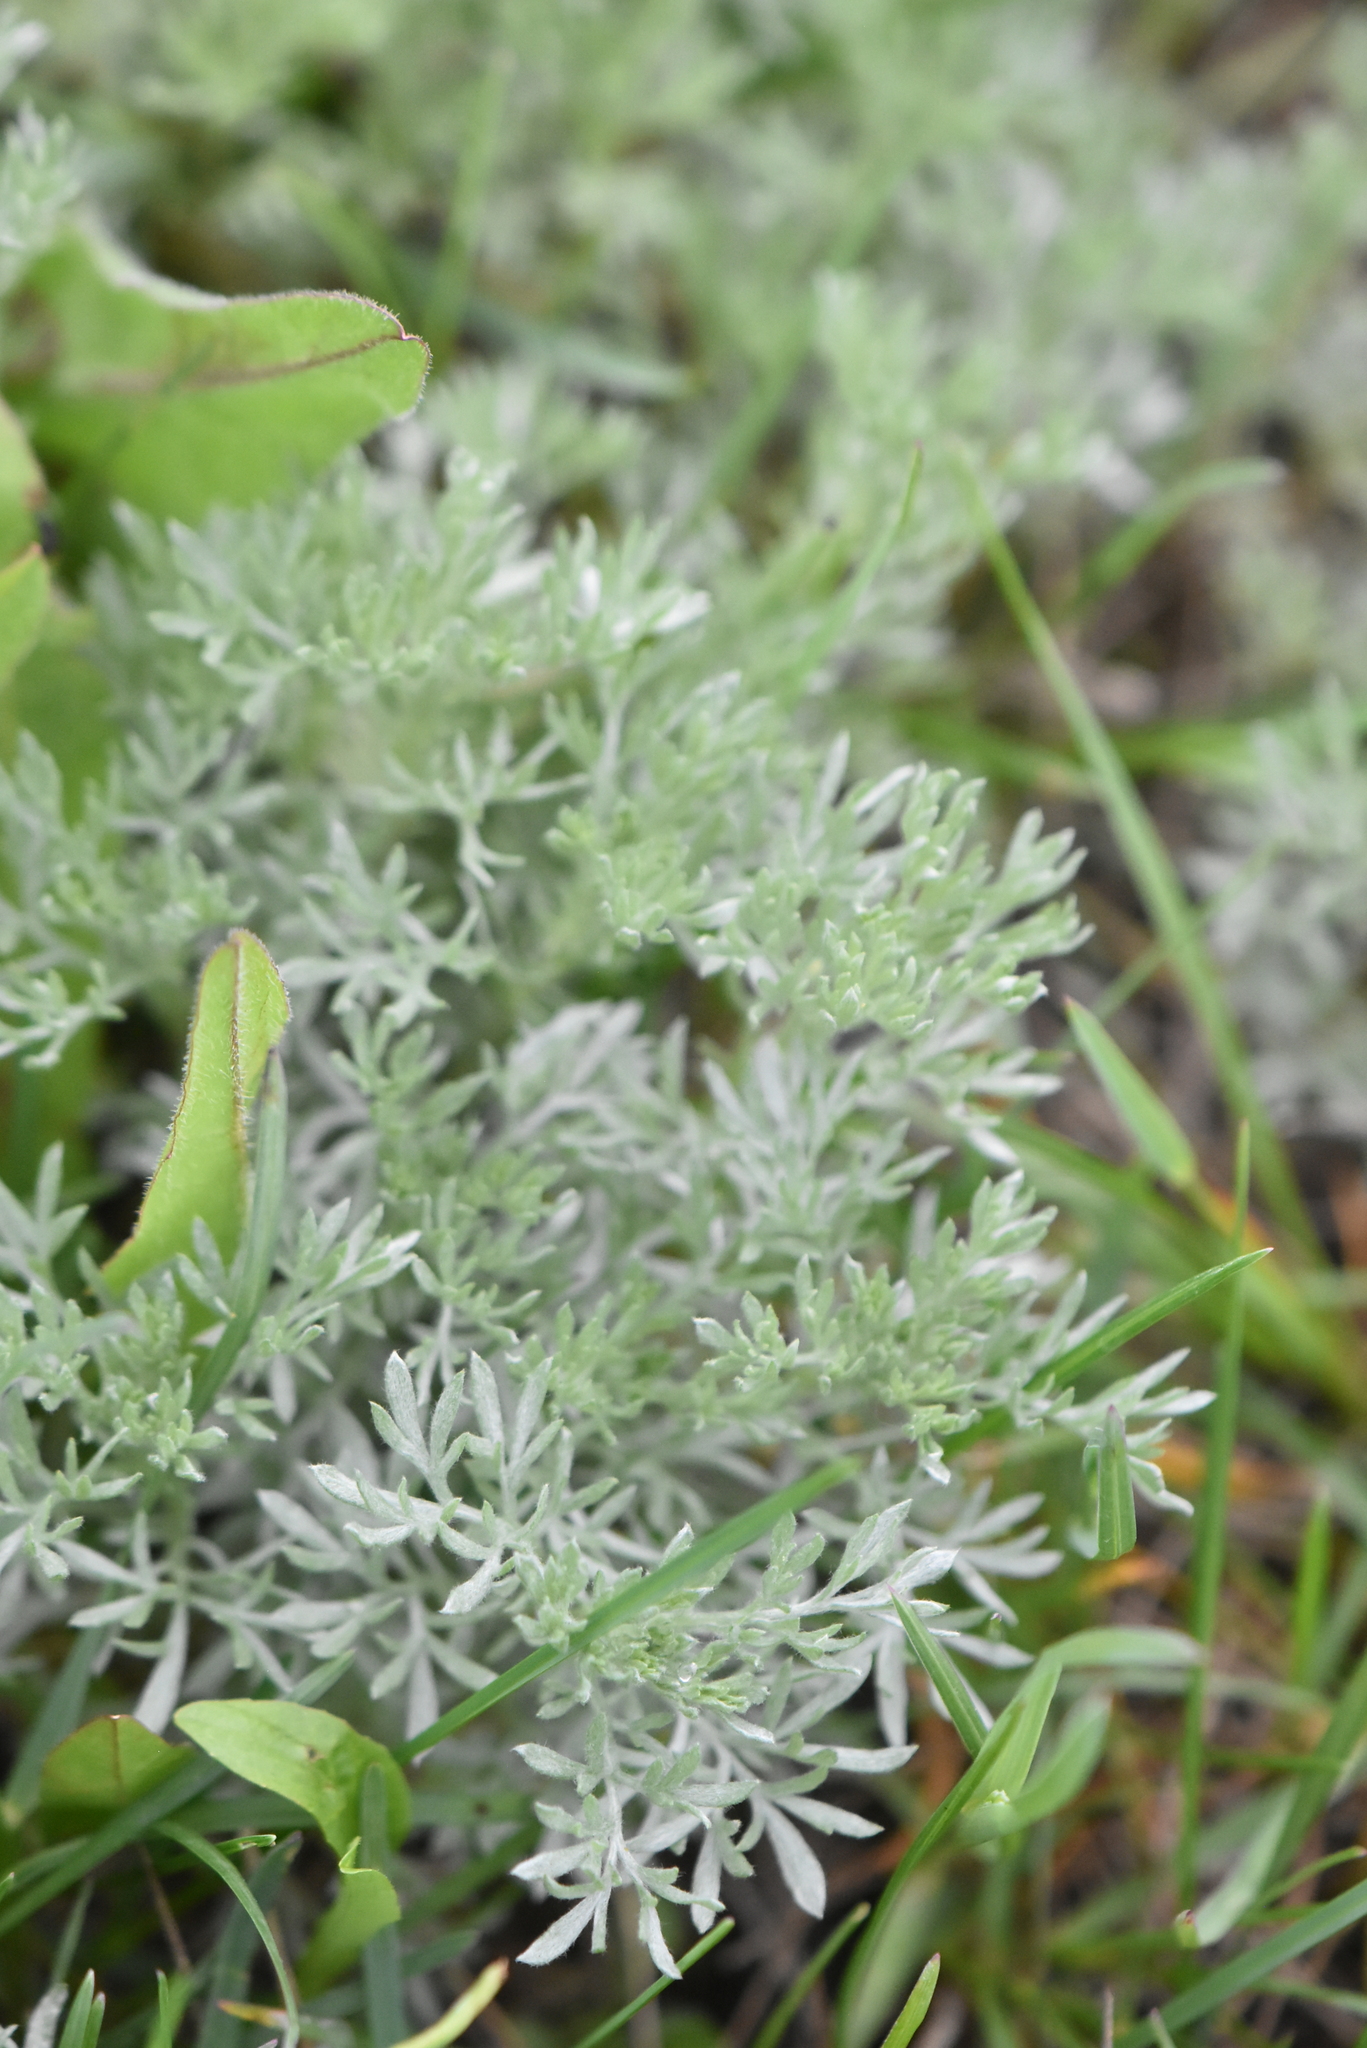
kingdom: Plantae
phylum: Tracheophyta
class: Magnoliopsida
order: Asterales
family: Asteraceae
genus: Artemisia
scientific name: Artemisia absinthium
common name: Wormwood
